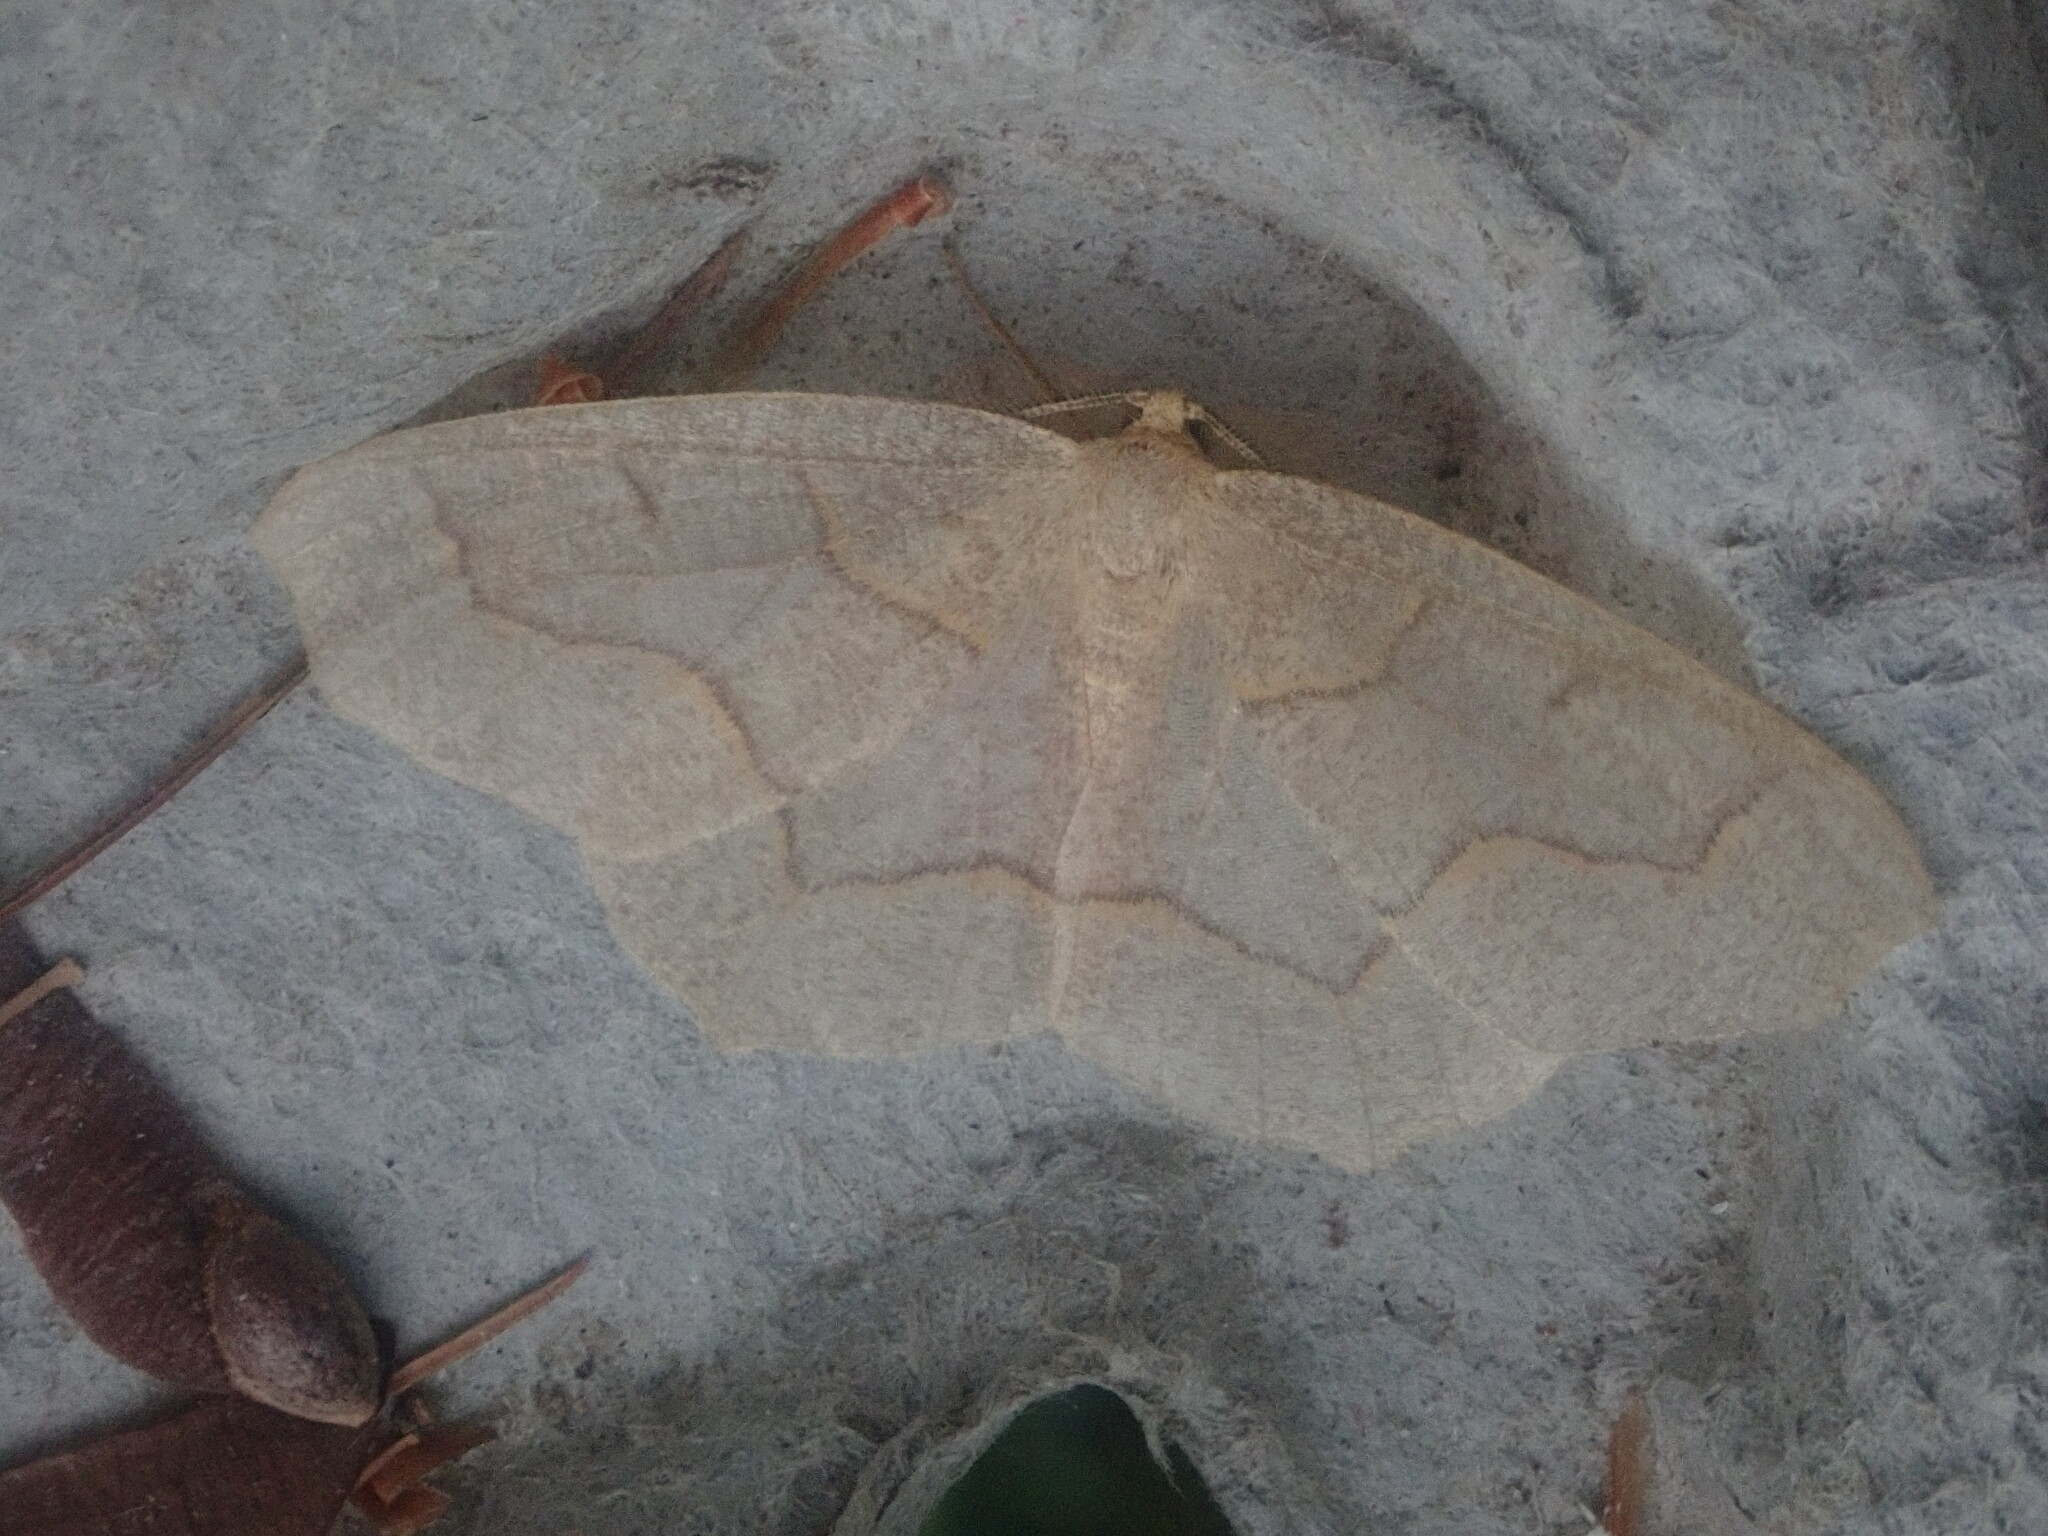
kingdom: Animalia
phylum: Arthropoda
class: Insecta
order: Lepidoptera
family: Geometridae
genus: Lambdina
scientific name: Lambdina fiscellaria
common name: Hemlock looper
